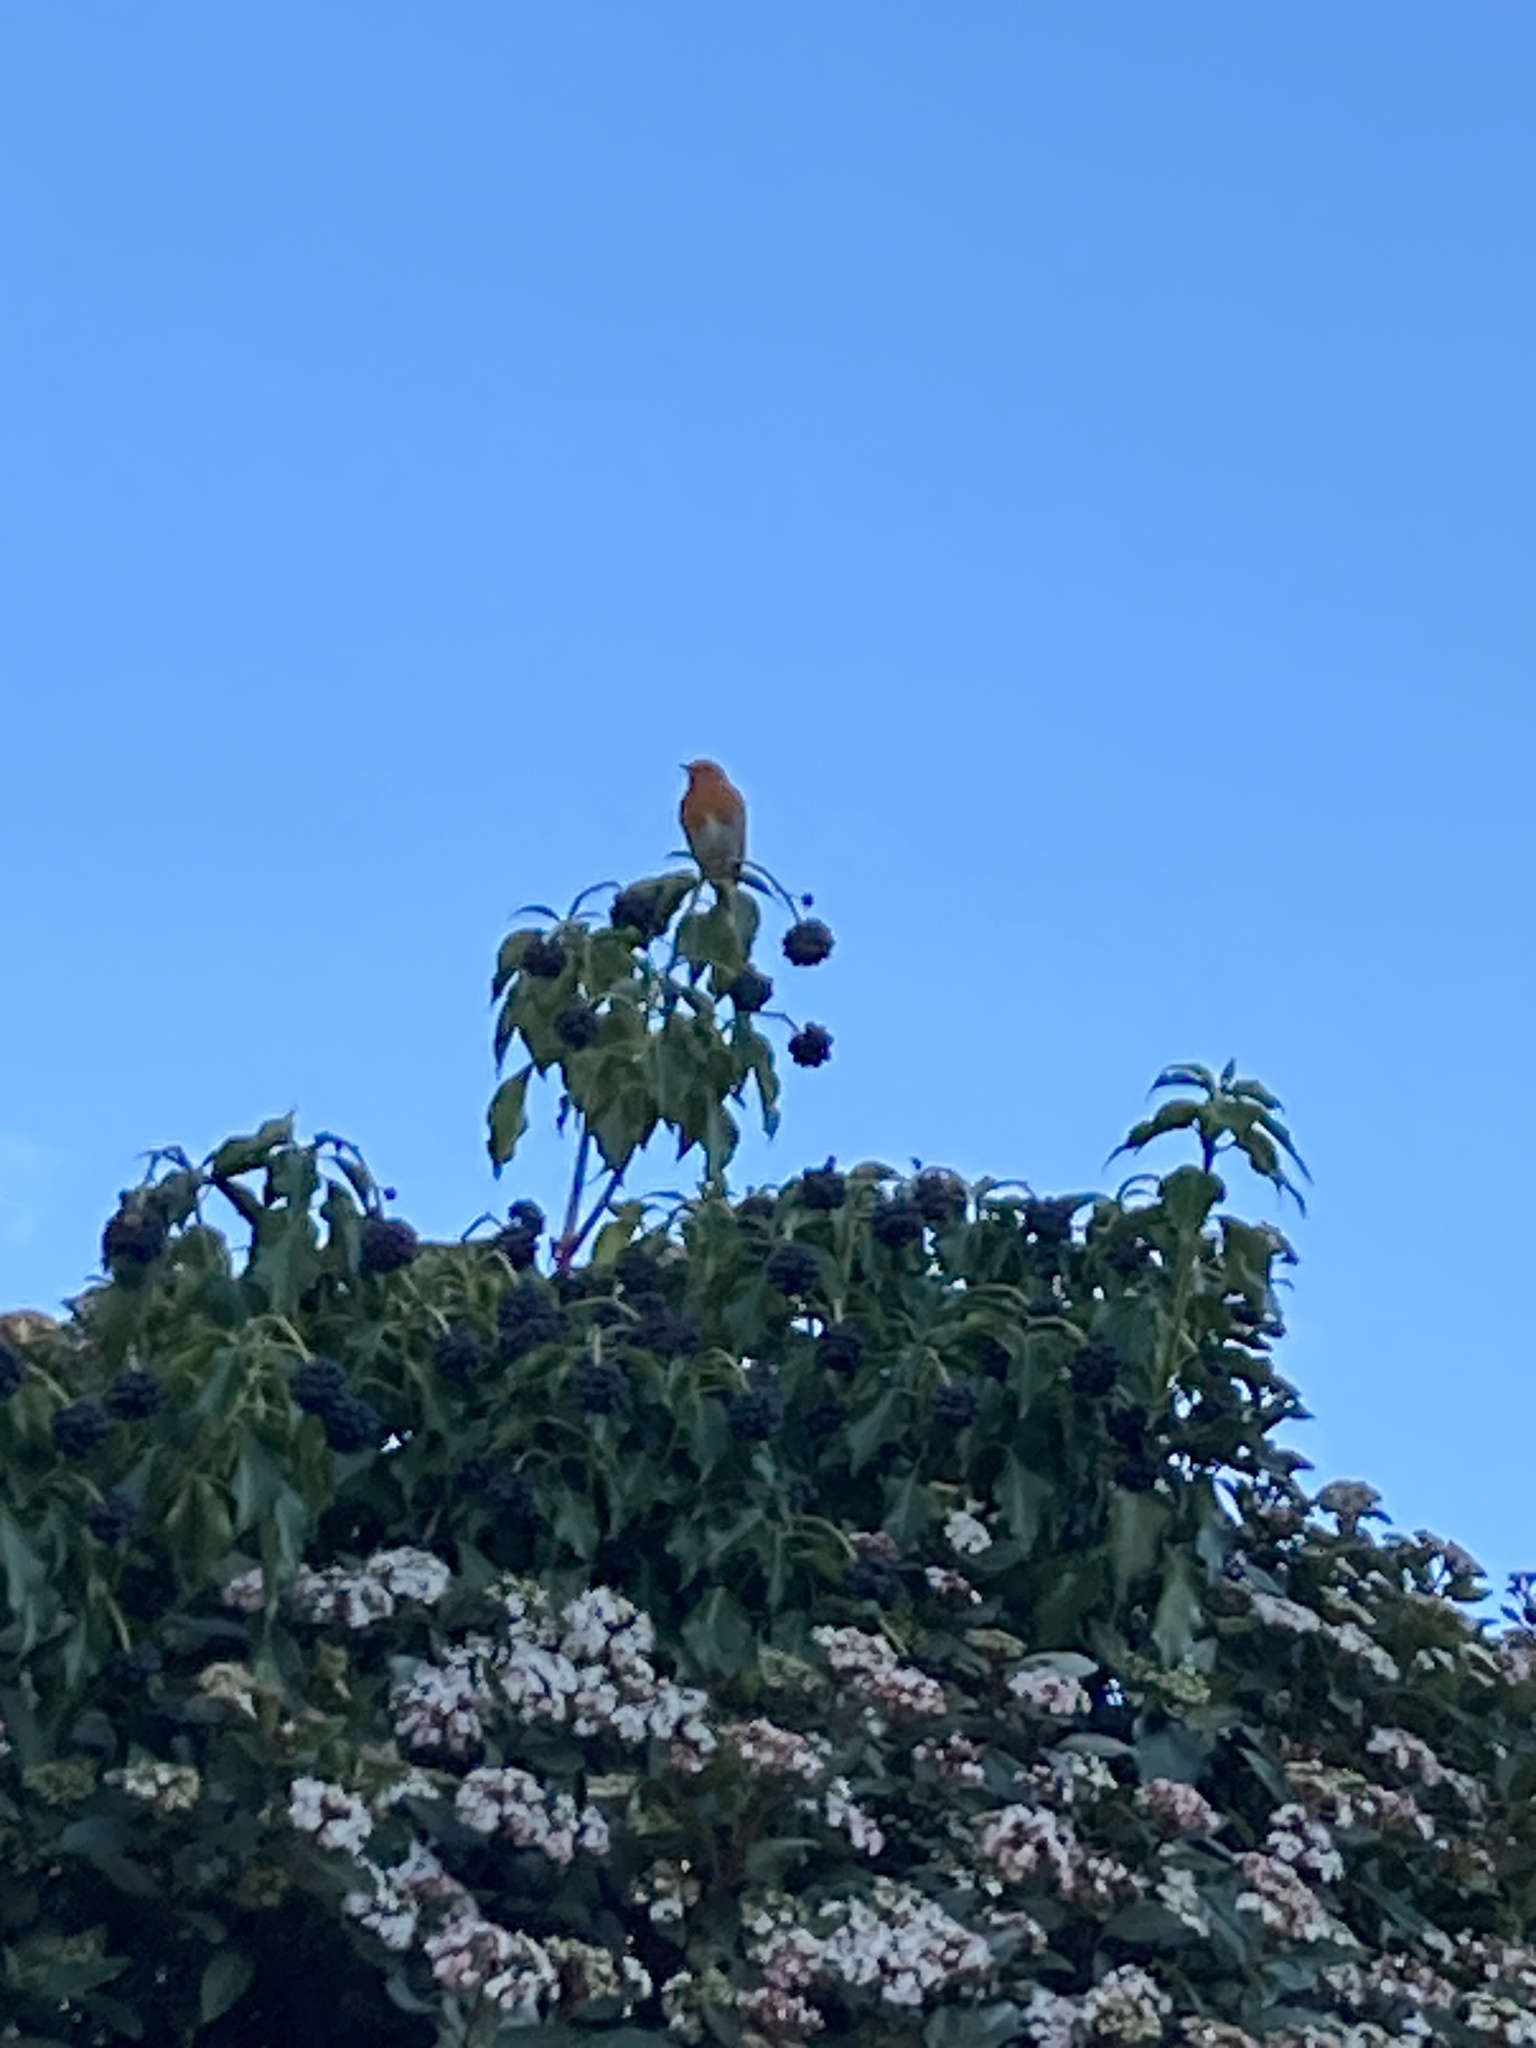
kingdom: Animalia
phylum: Chordata
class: Aves
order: Passeriformes
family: Muscicapidae
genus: Erithacus
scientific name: Erithacus rubecula
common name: European robin
